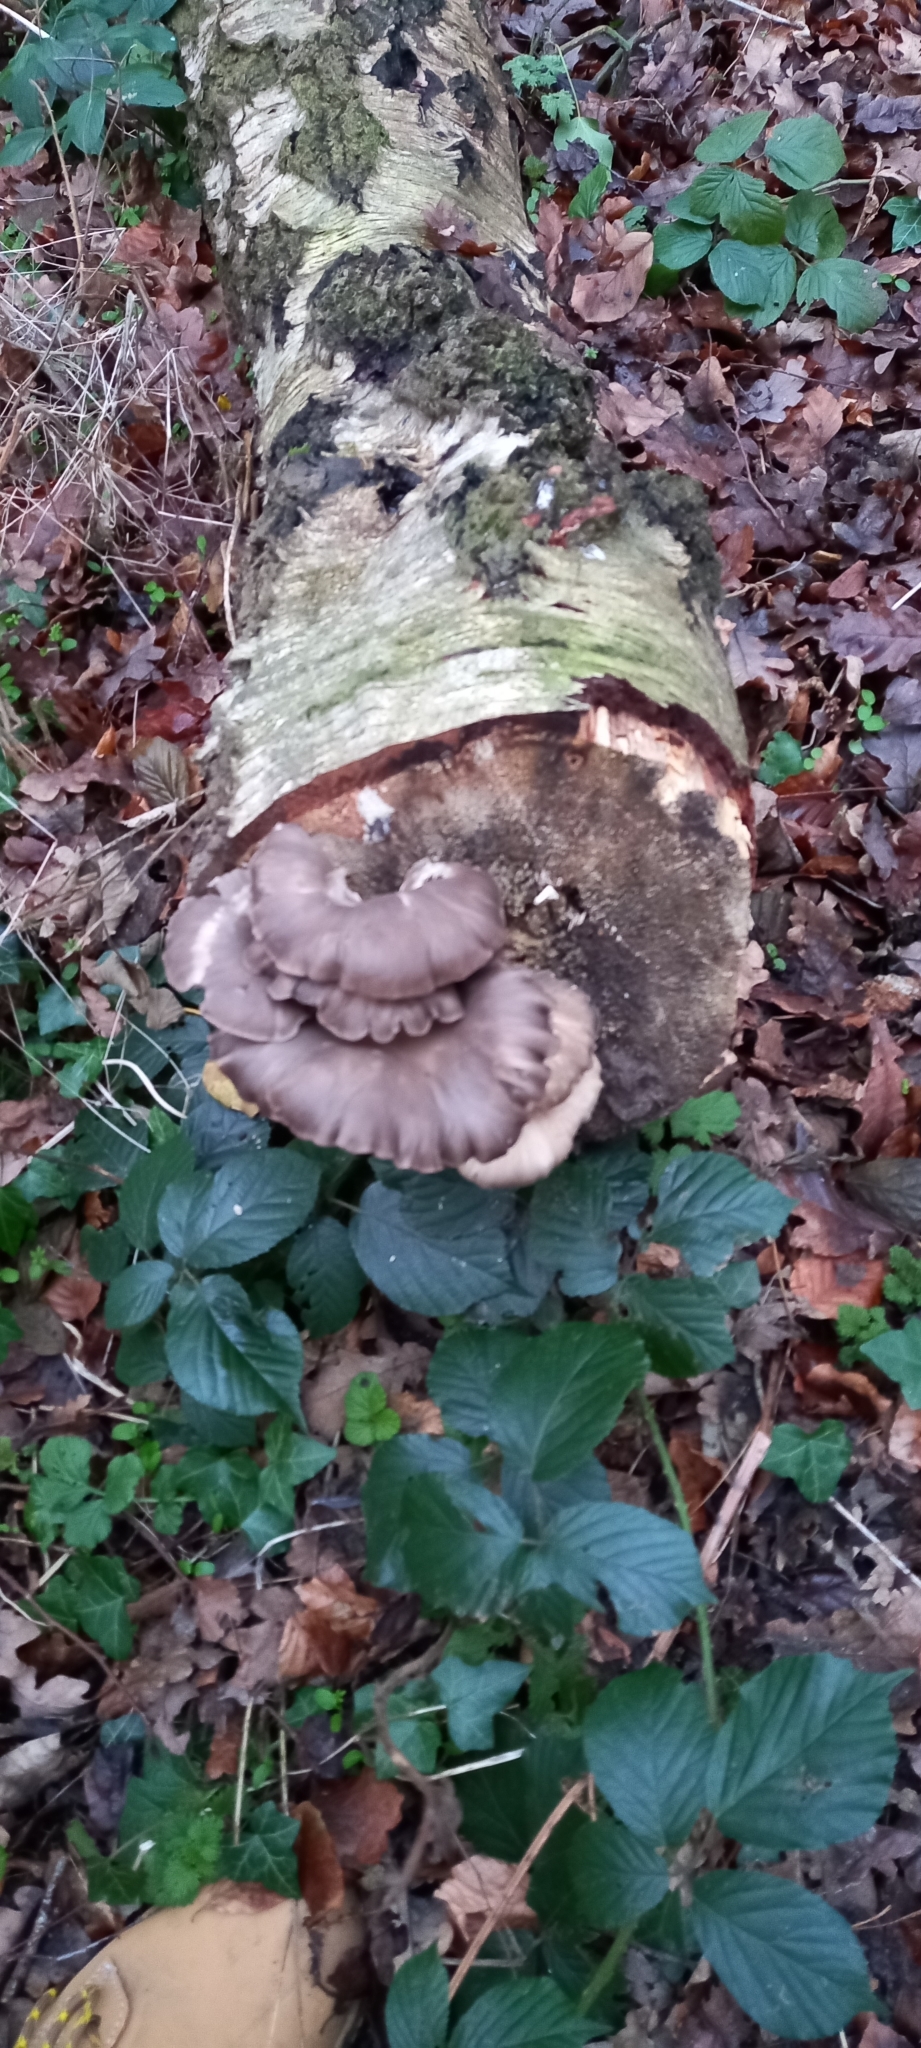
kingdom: Fungi
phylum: Basidiomycota
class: Agaricomycetes
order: Agaricales
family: Pleurotaceae
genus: Pleurotus
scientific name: Pleurotus ostreatus
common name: Oyster mushroom
